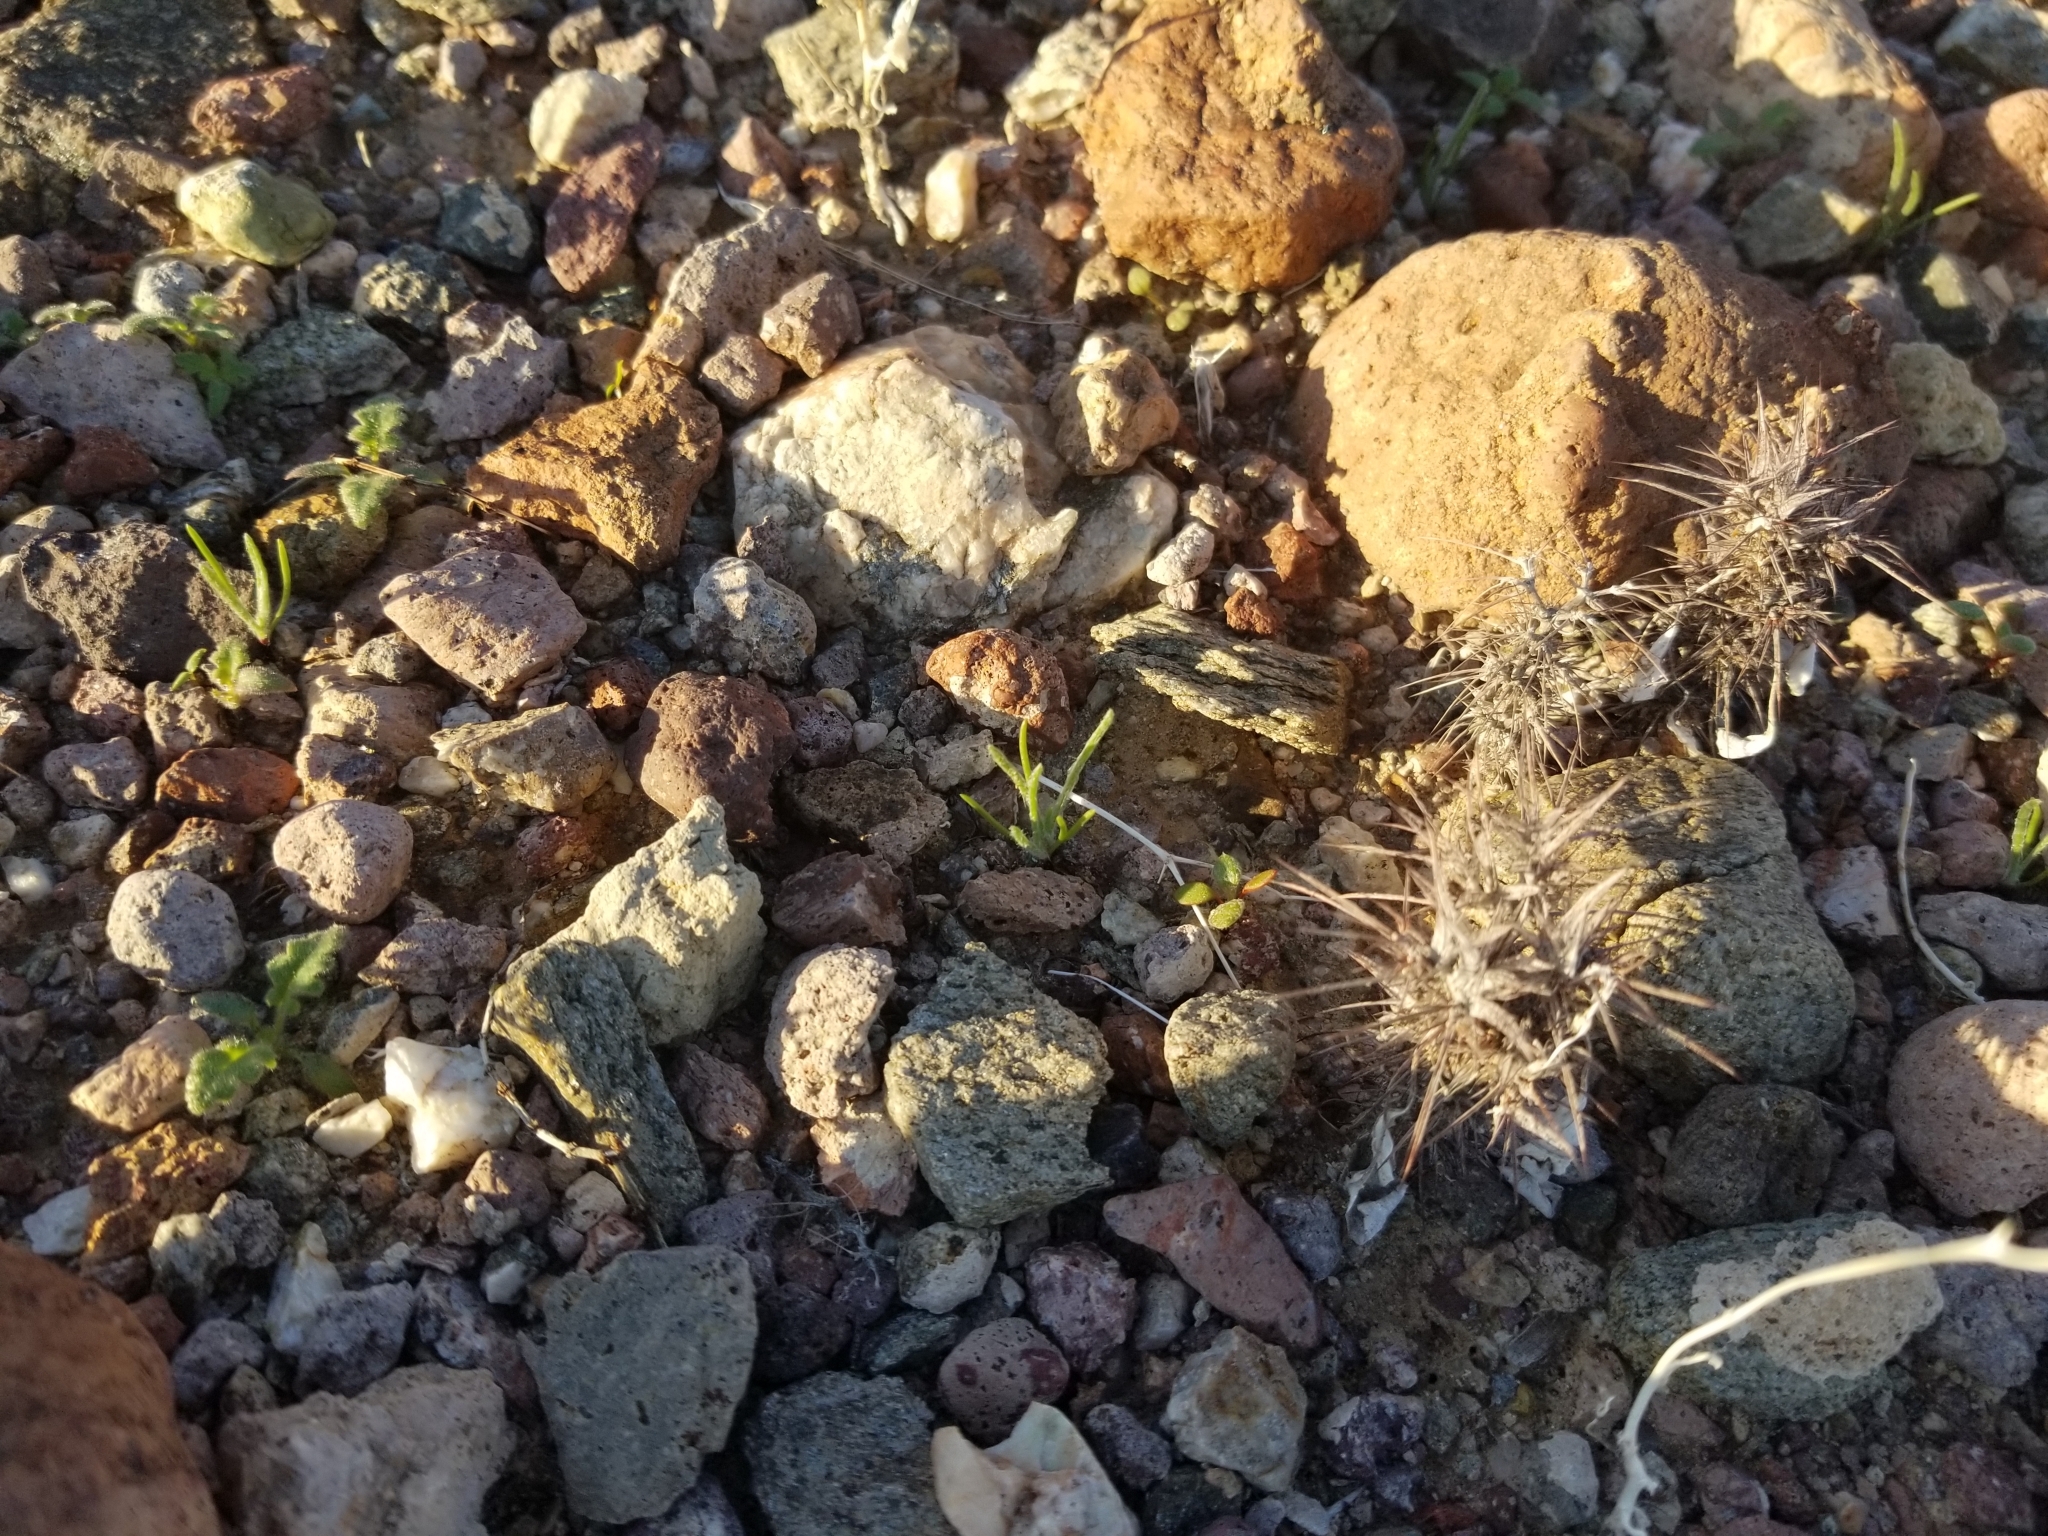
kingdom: Plantae
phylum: Tracheophyta
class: Magnoliopsida
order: Caryophyllales
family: Polygonaceae
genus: Chorizanthe
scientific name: Chorizanthe rigida
